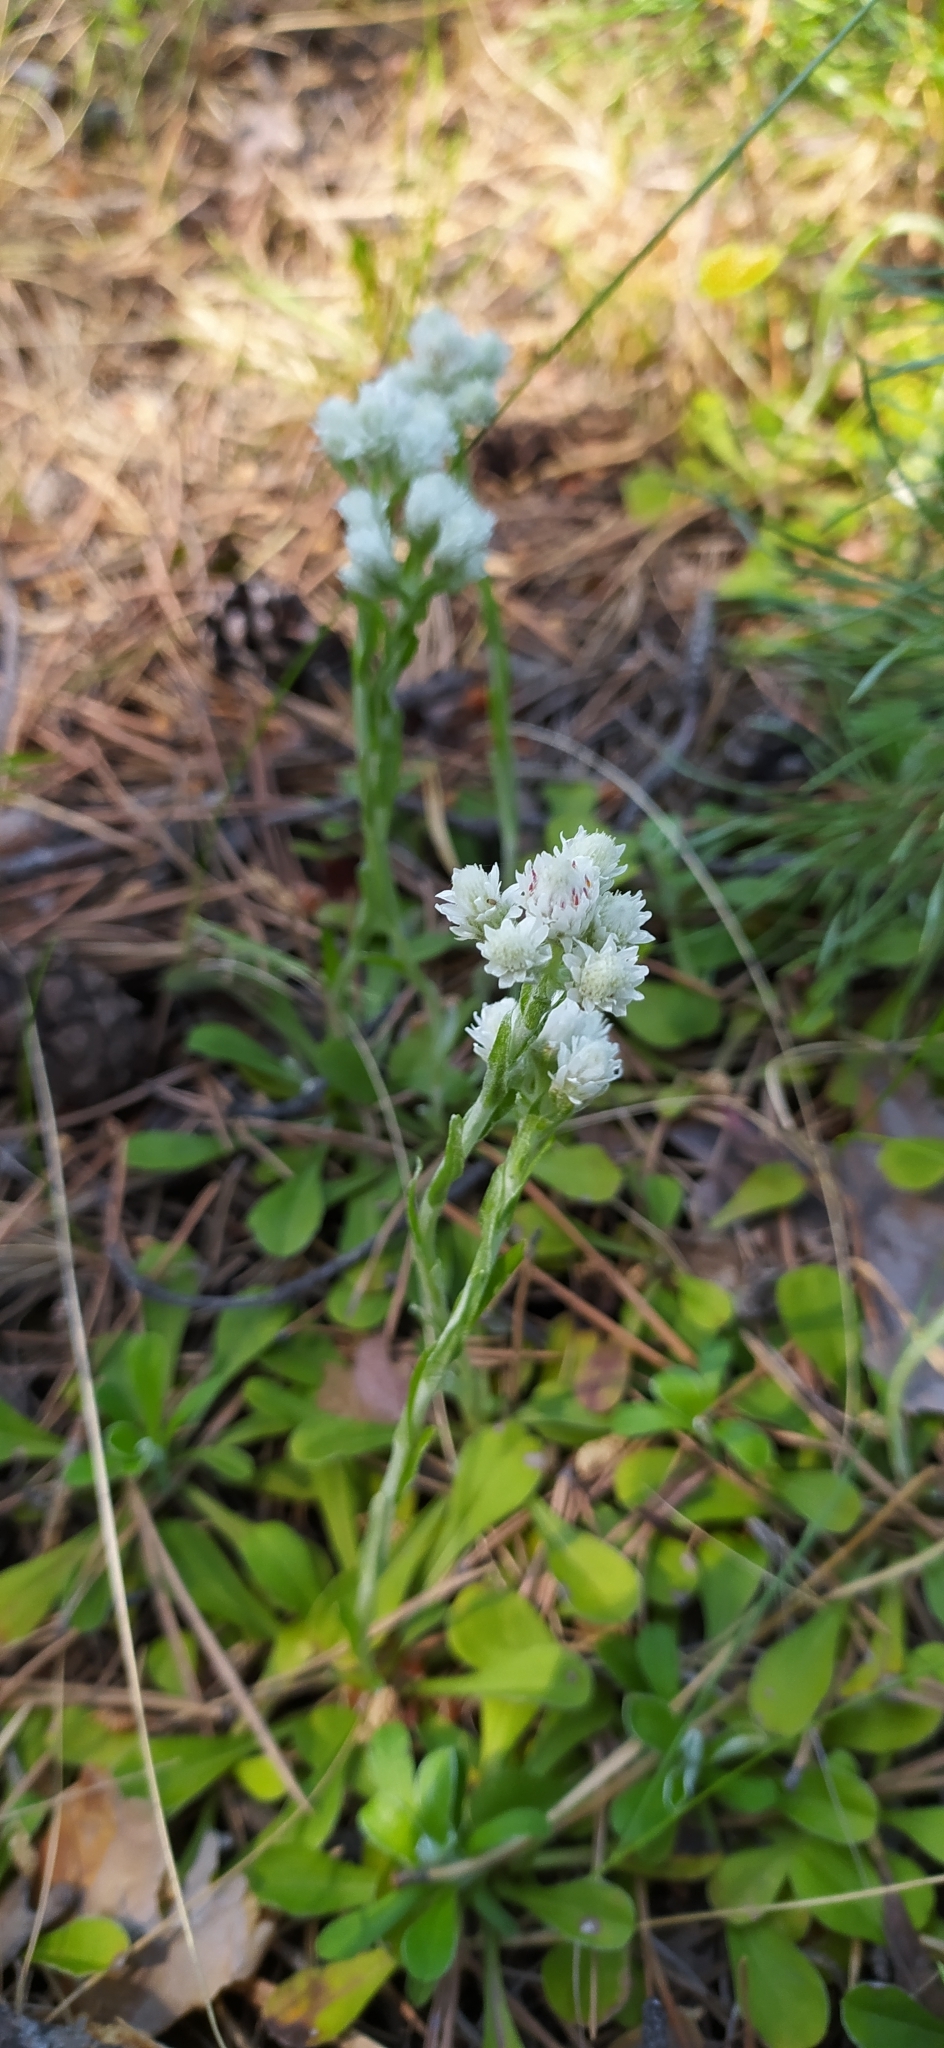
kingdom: Plantae
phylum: Tracheophyta
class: Magnoliopsida
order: Asterales
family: Asteraceae
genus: Antennaria
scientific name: Antennaria dioica
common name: Mountain everlasting
